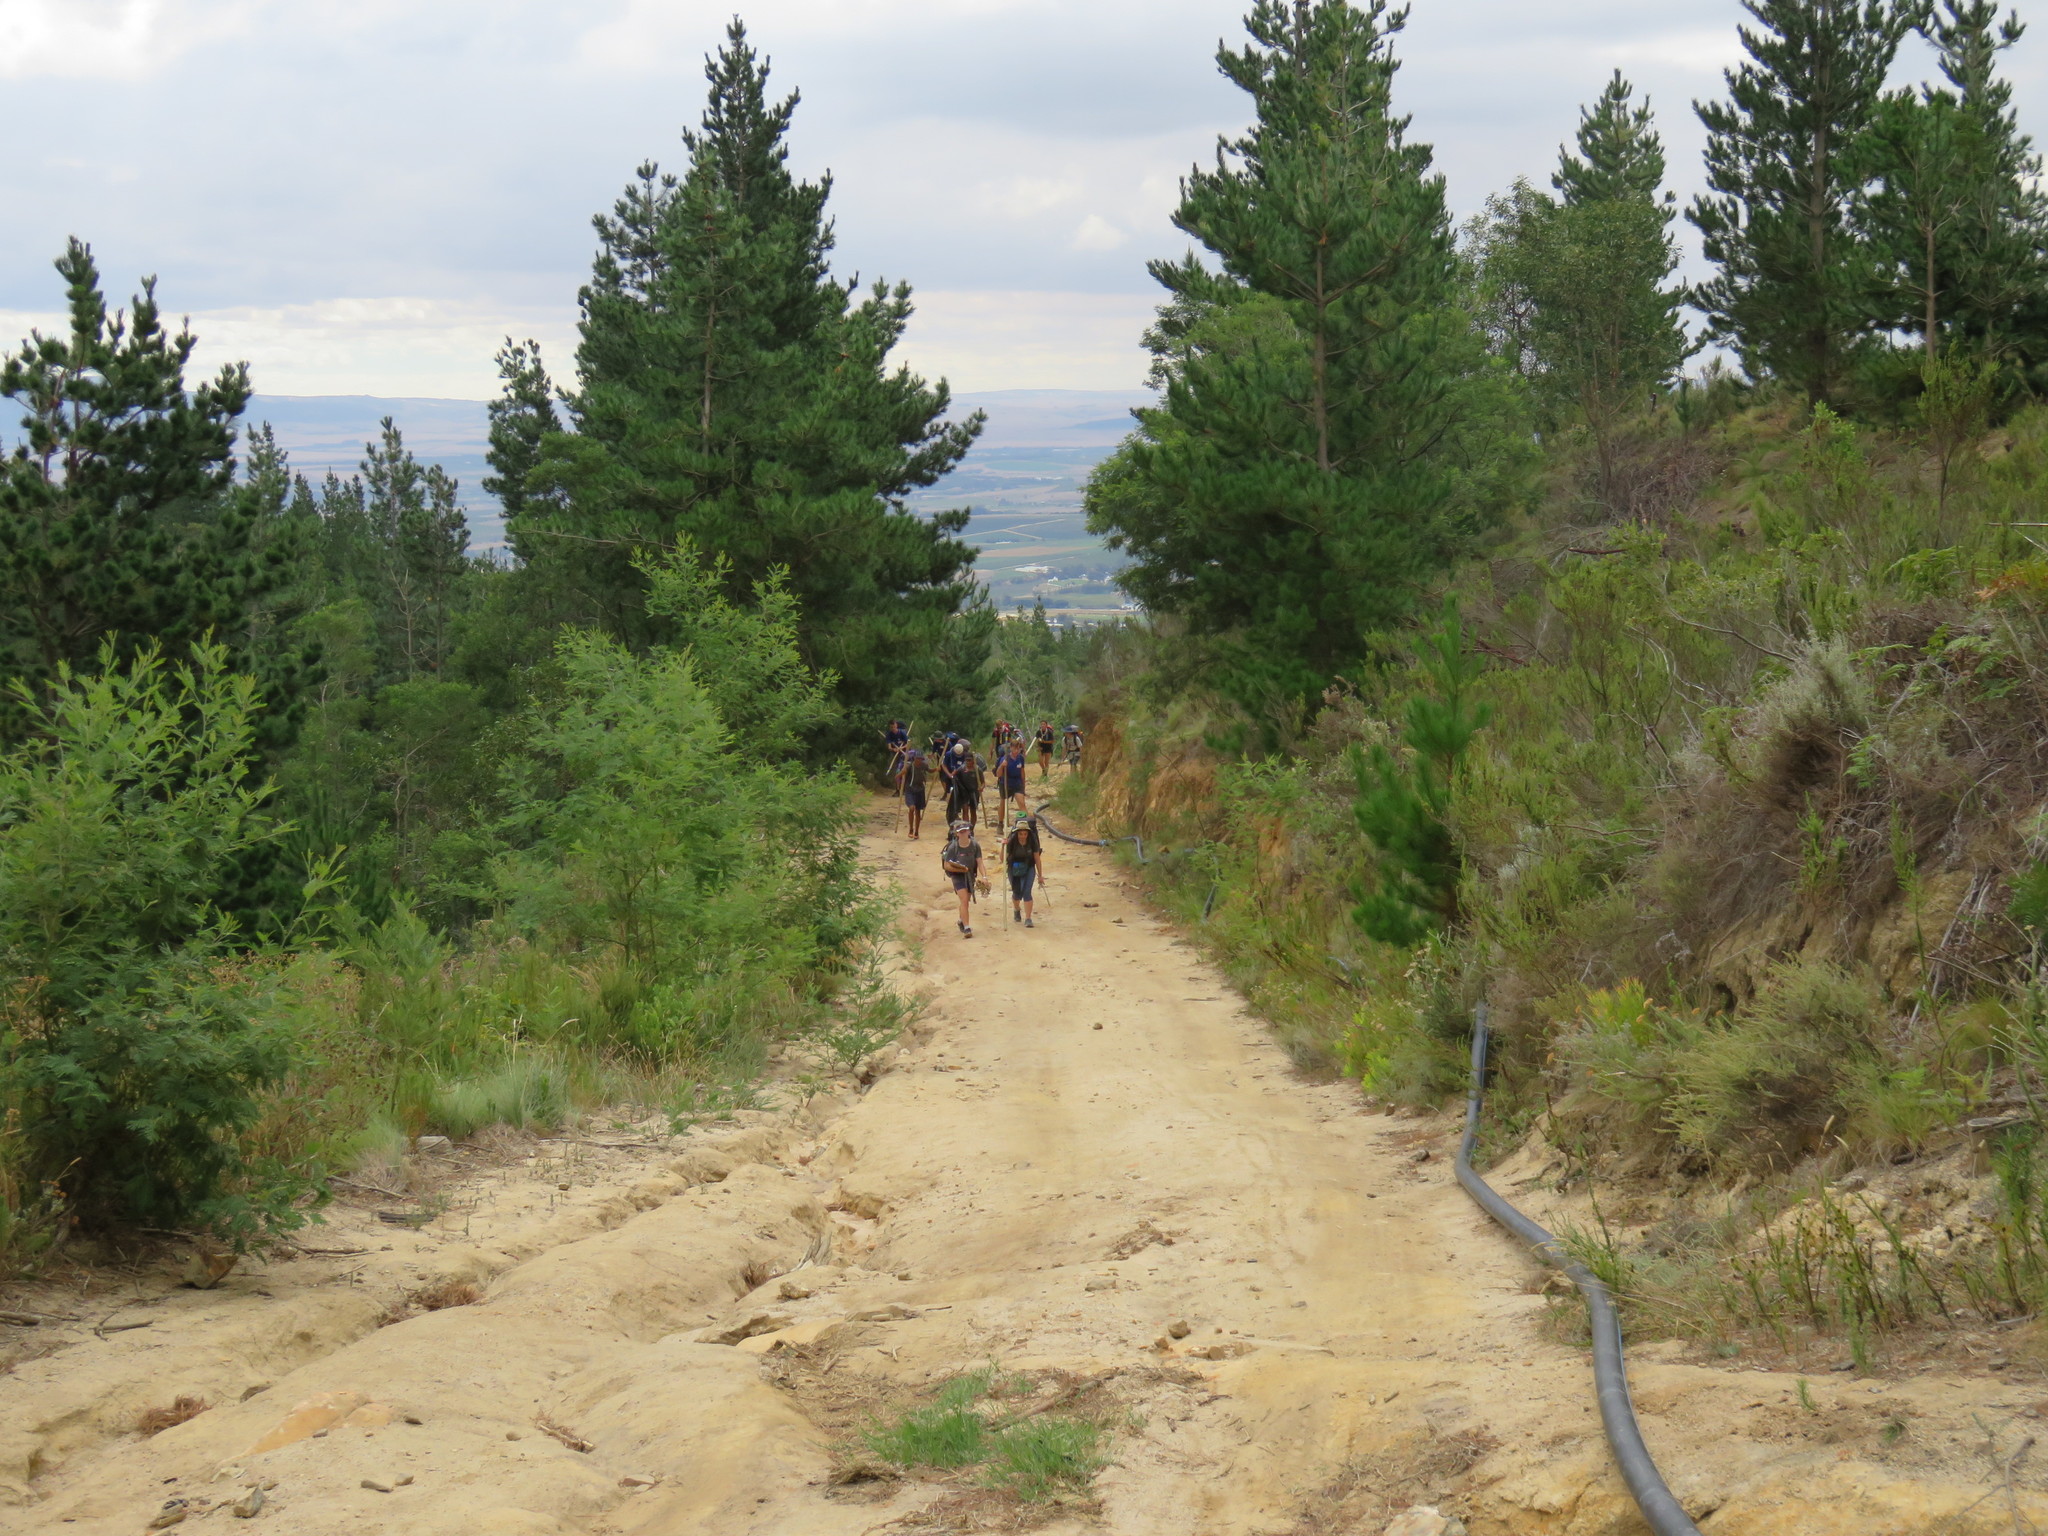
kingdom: Plantae
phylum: Tracheophyta
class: Pinopsida
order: Pinales
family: Pinaceae
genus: Pinus
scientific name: Pinus radiata
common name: Monterey pine
